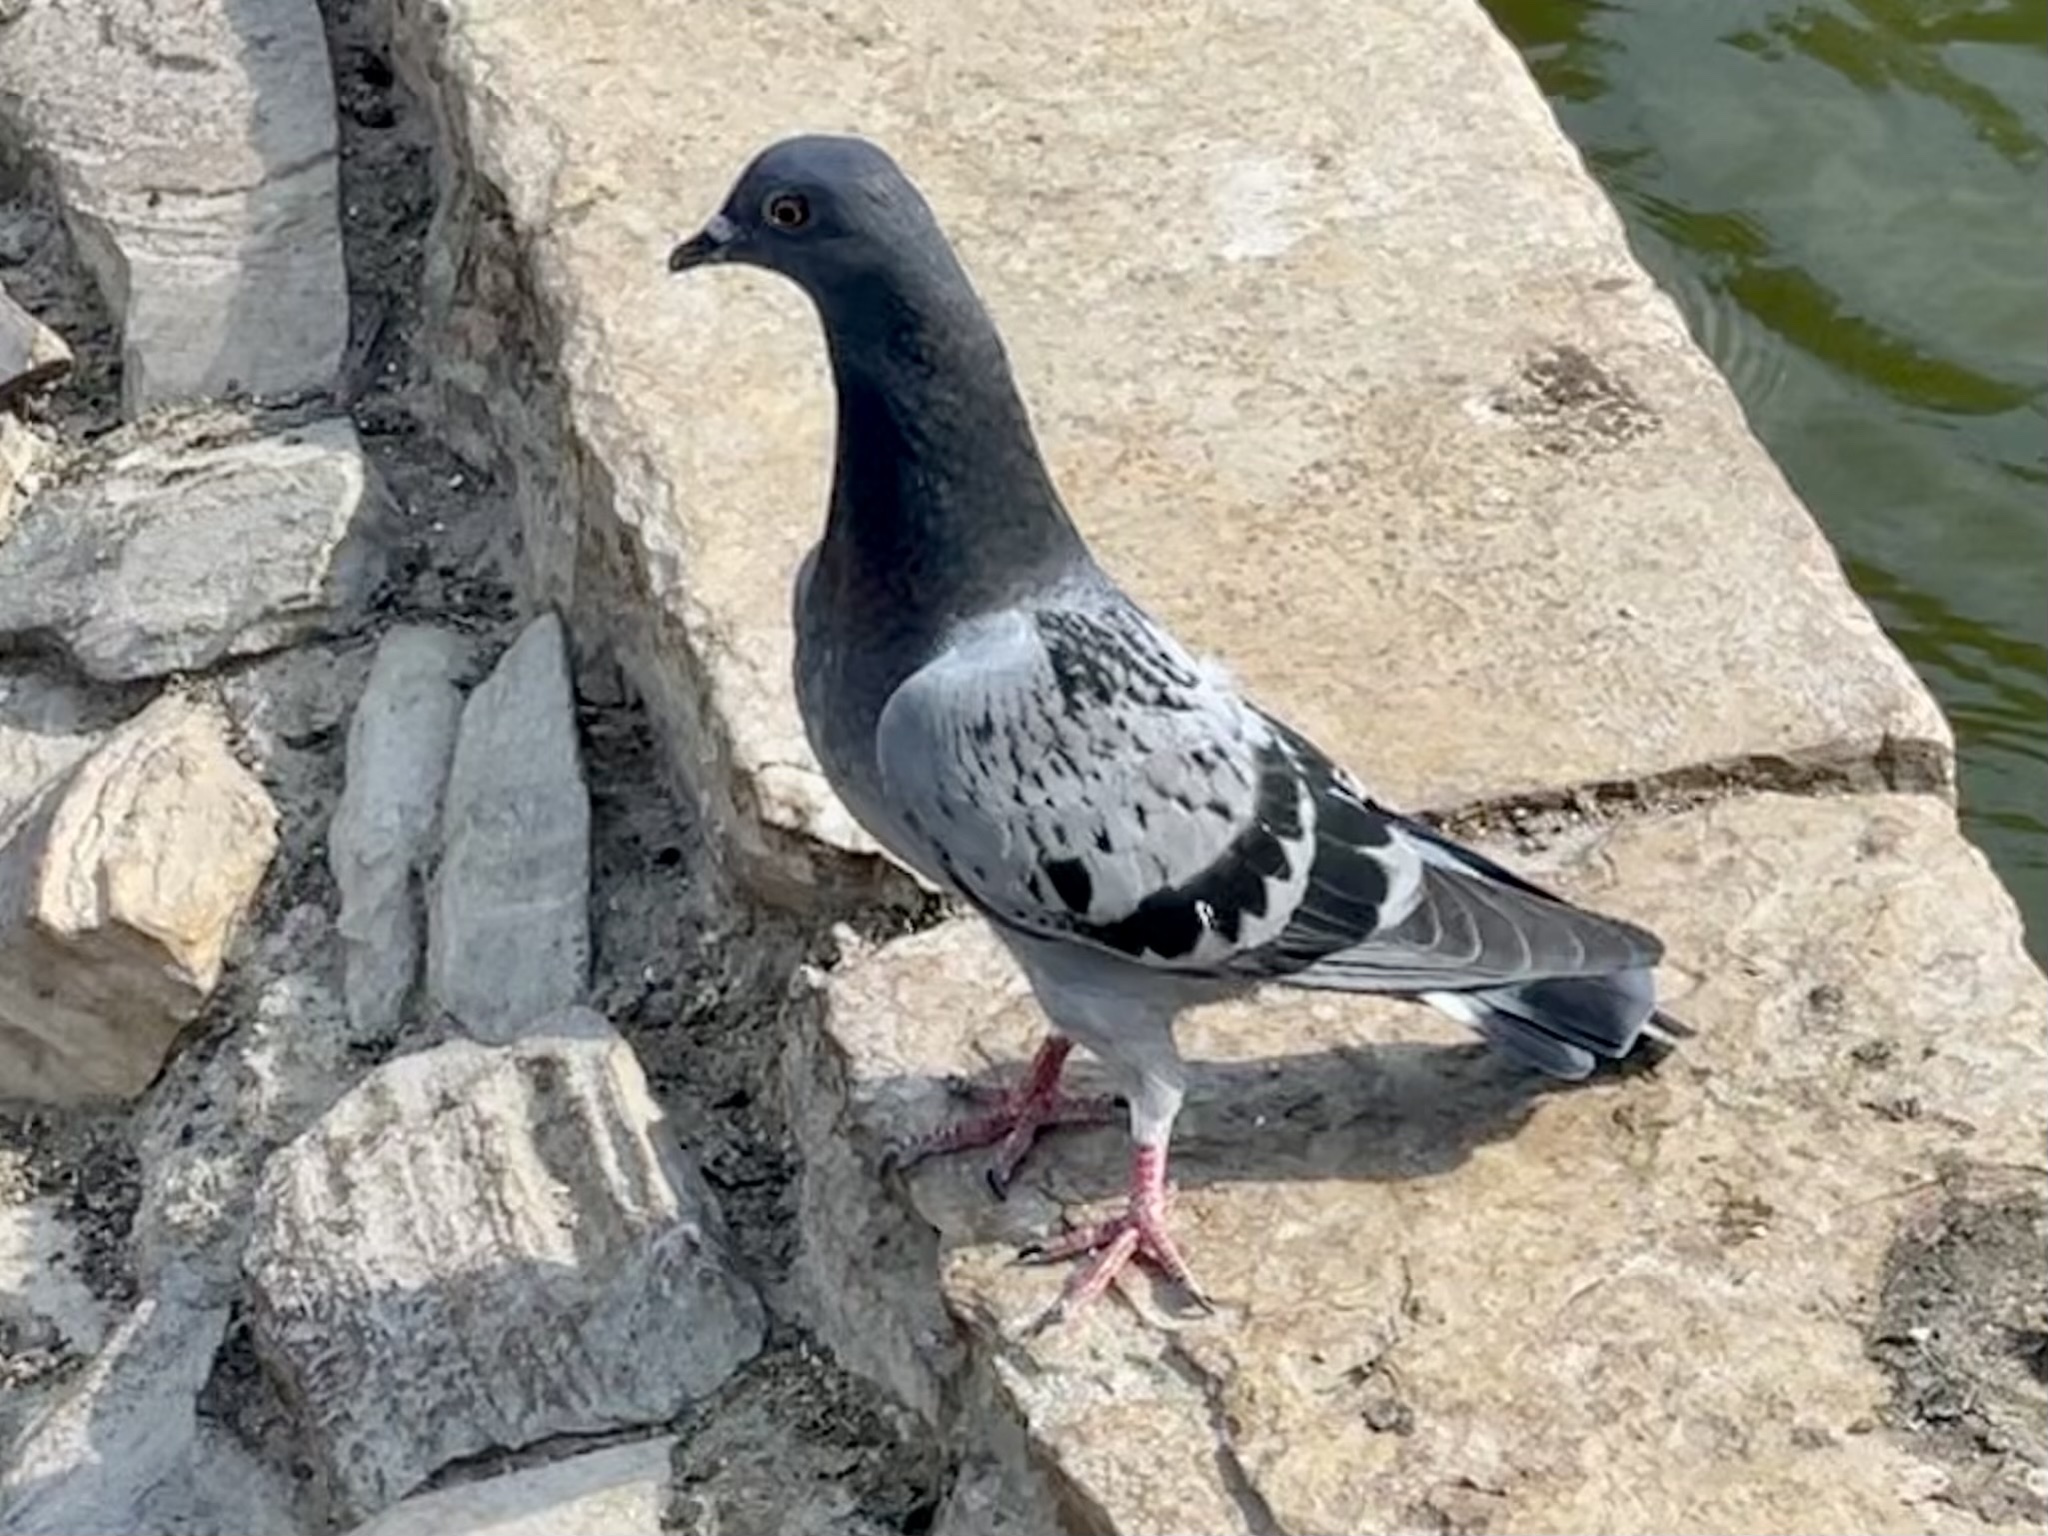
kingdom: Animalia
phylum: Chordata
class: Aves
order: Columbiformes
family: Columbidae
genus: Columba
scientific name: Columba livia
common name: Rock pigeon
